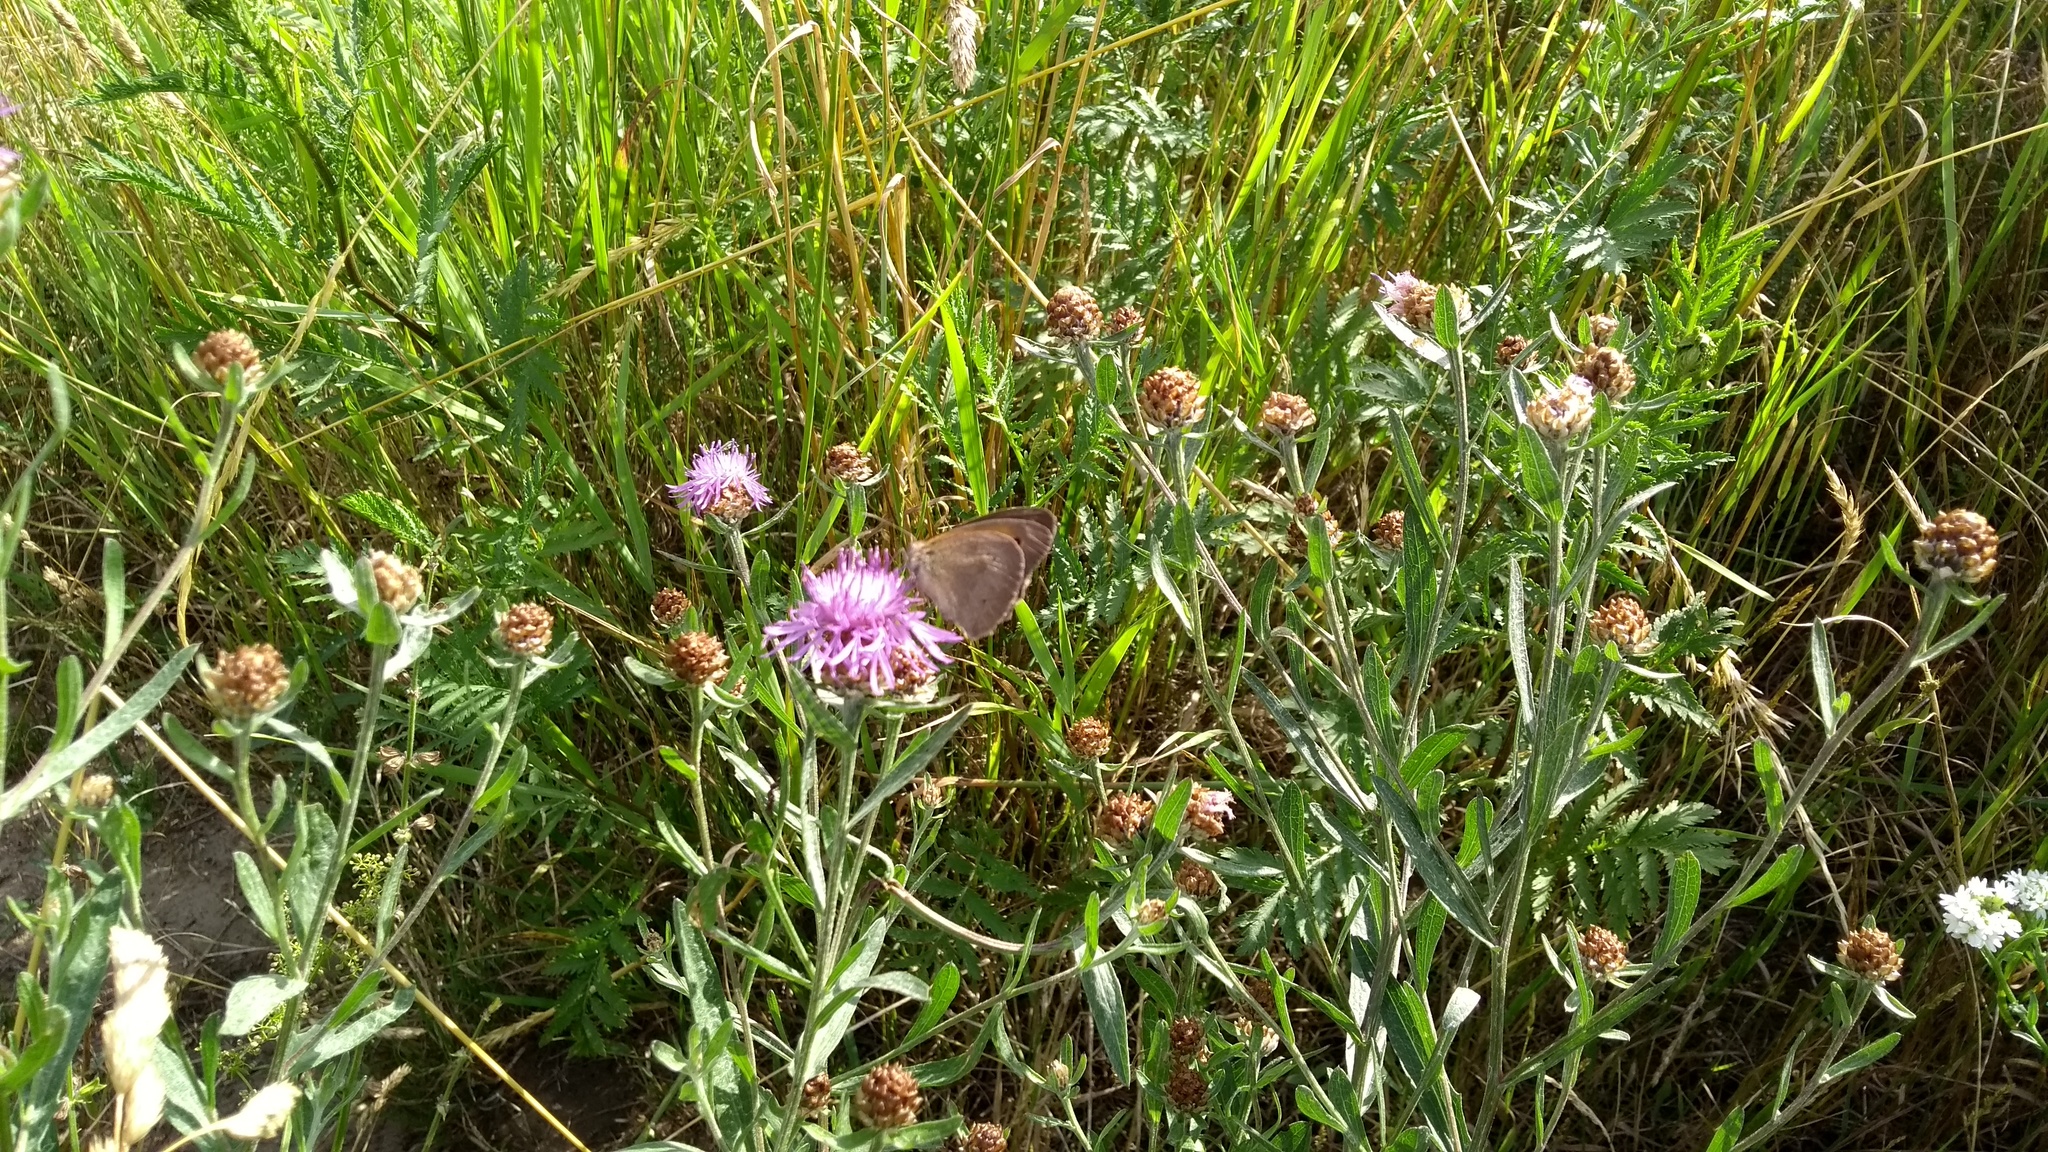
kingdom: Animalia
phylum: Arthropoda
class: Insecta
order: Lepidoptera
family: Nymphalidae
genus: Maniola
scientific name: Maniola jurtina
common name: Meadow brown
